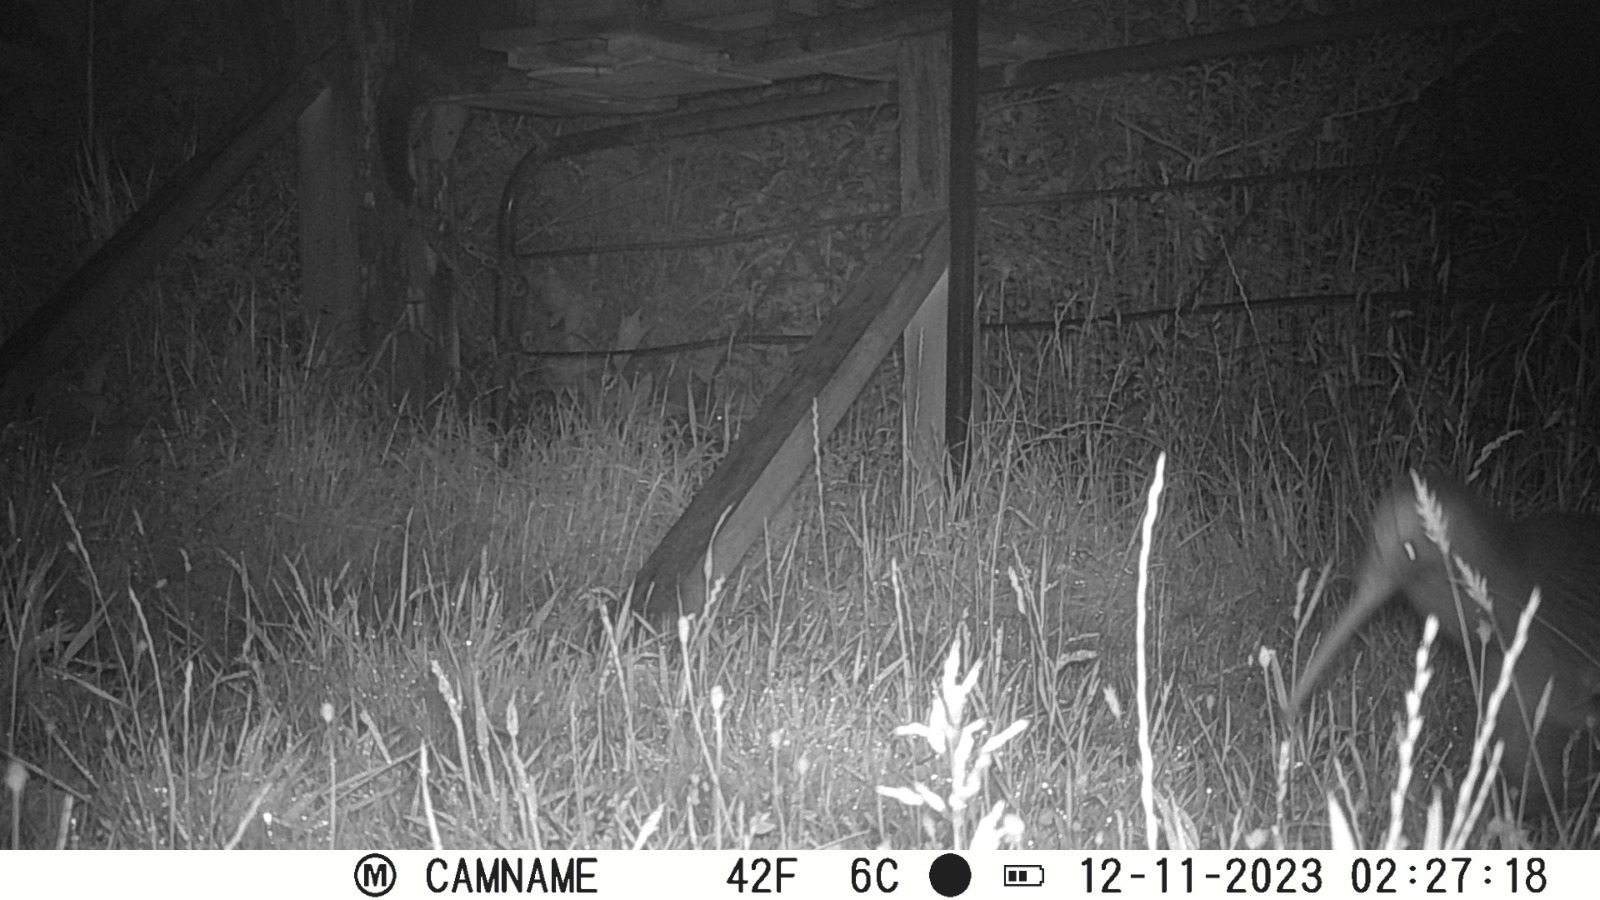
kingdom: Animalia
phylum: Chordata
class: Aves
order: Apterygiformes
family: Apterygidae
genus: Apteryx
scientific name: Apteryx mantelli
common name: North island brown kiwi
